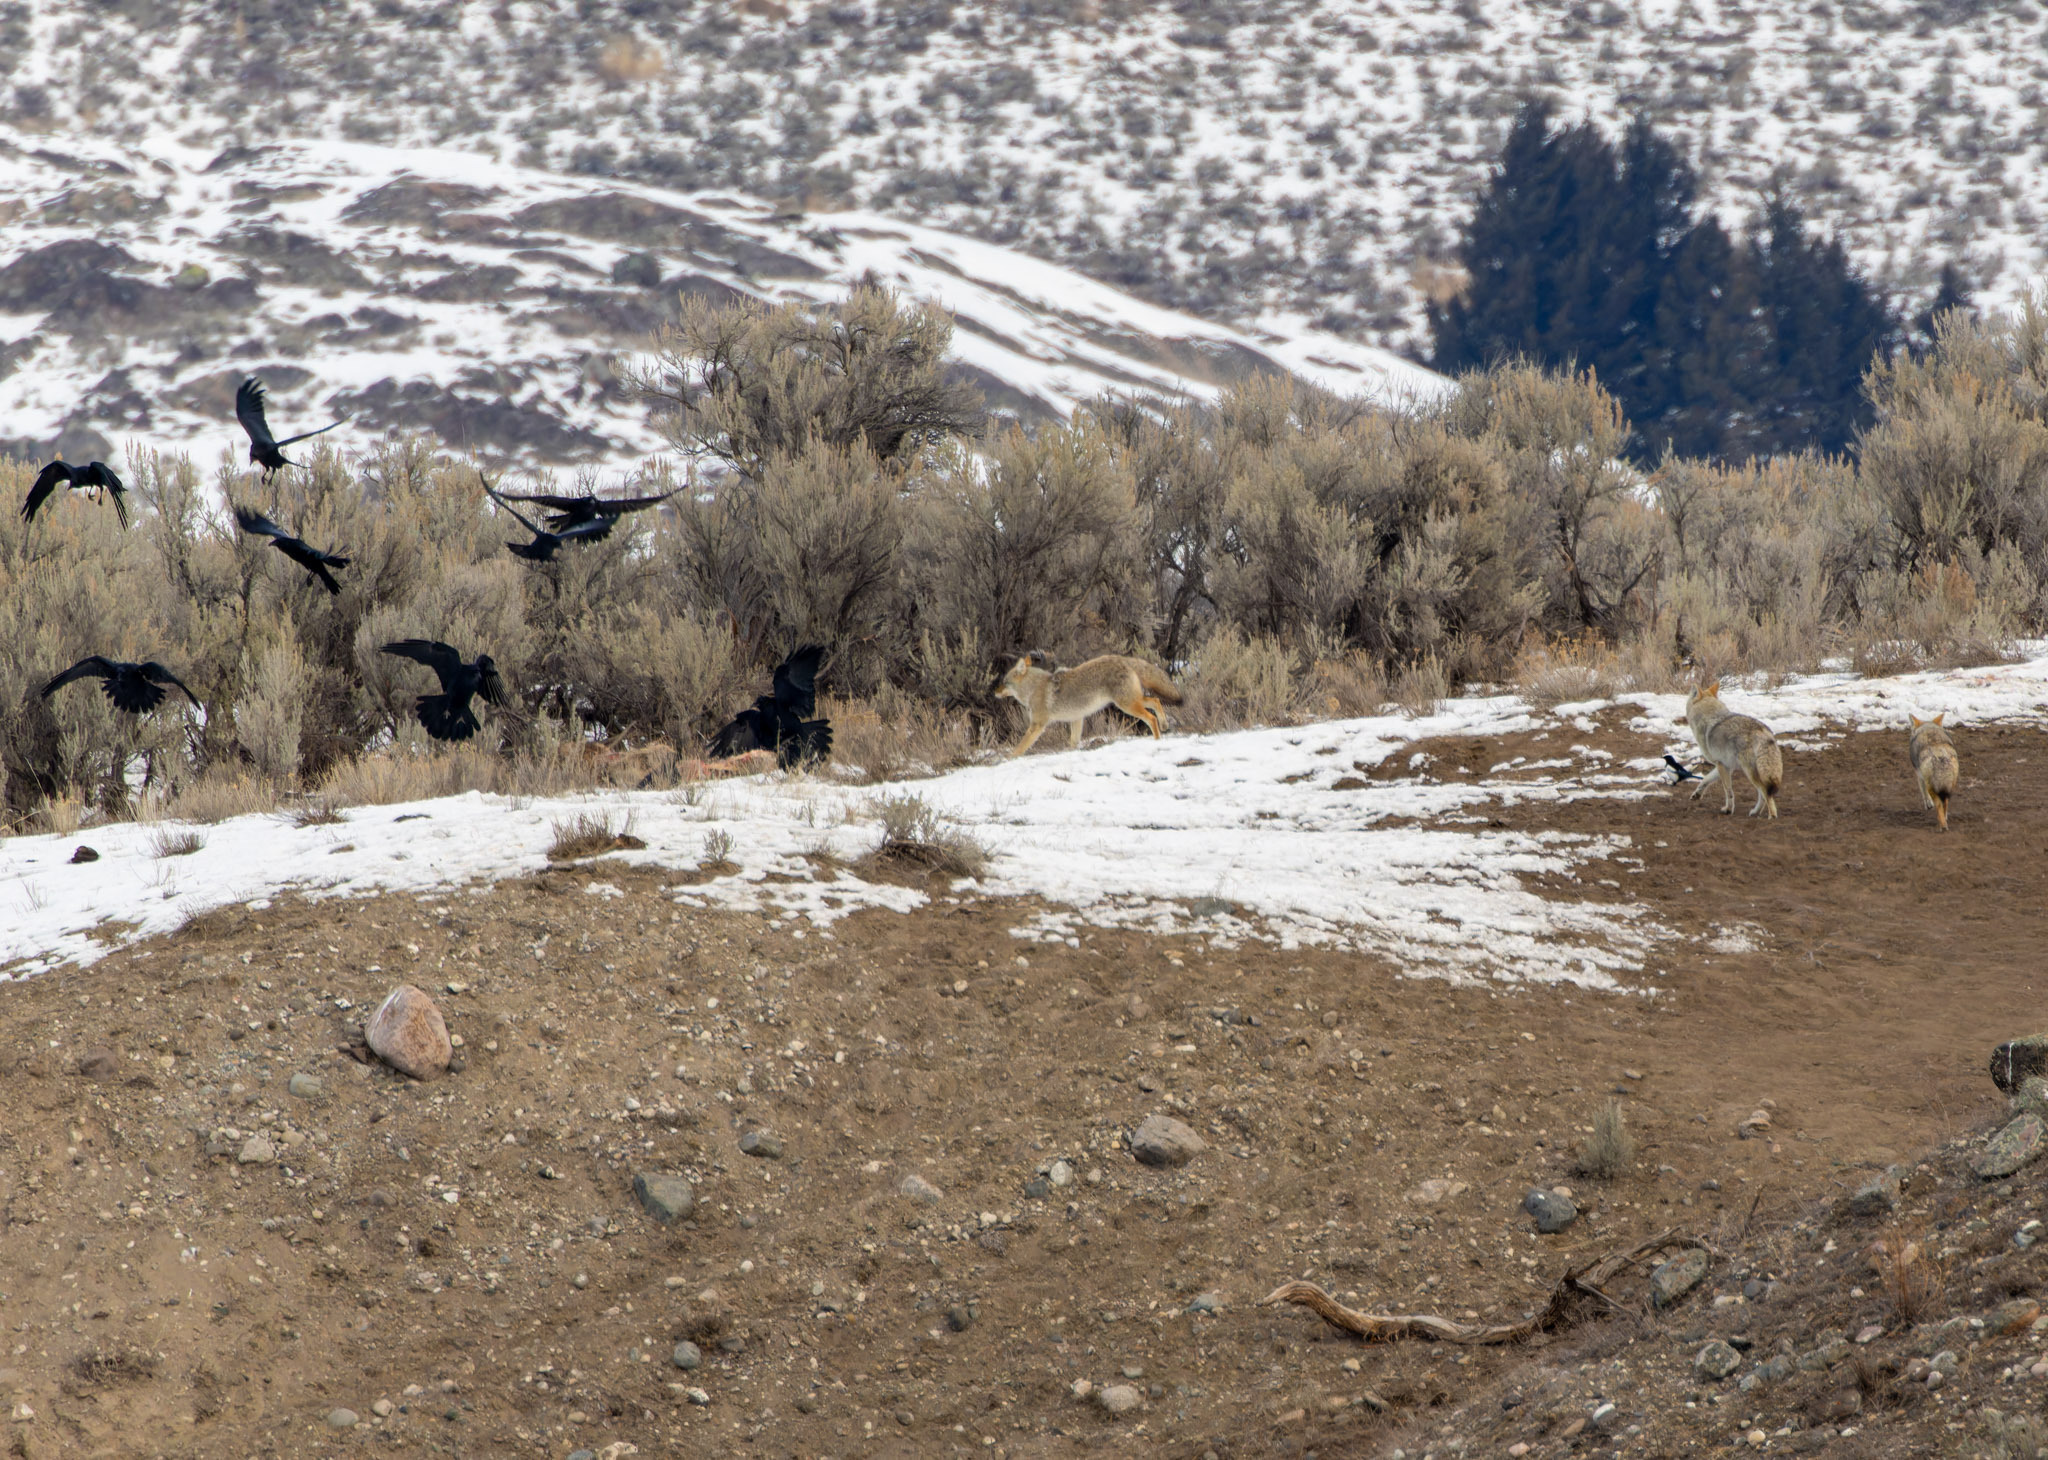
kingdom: Animalia
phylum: Chordata
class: Mammalia
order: Carnivora
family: Canidae
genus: Canis
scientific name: Canis latrans
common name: Coyote
